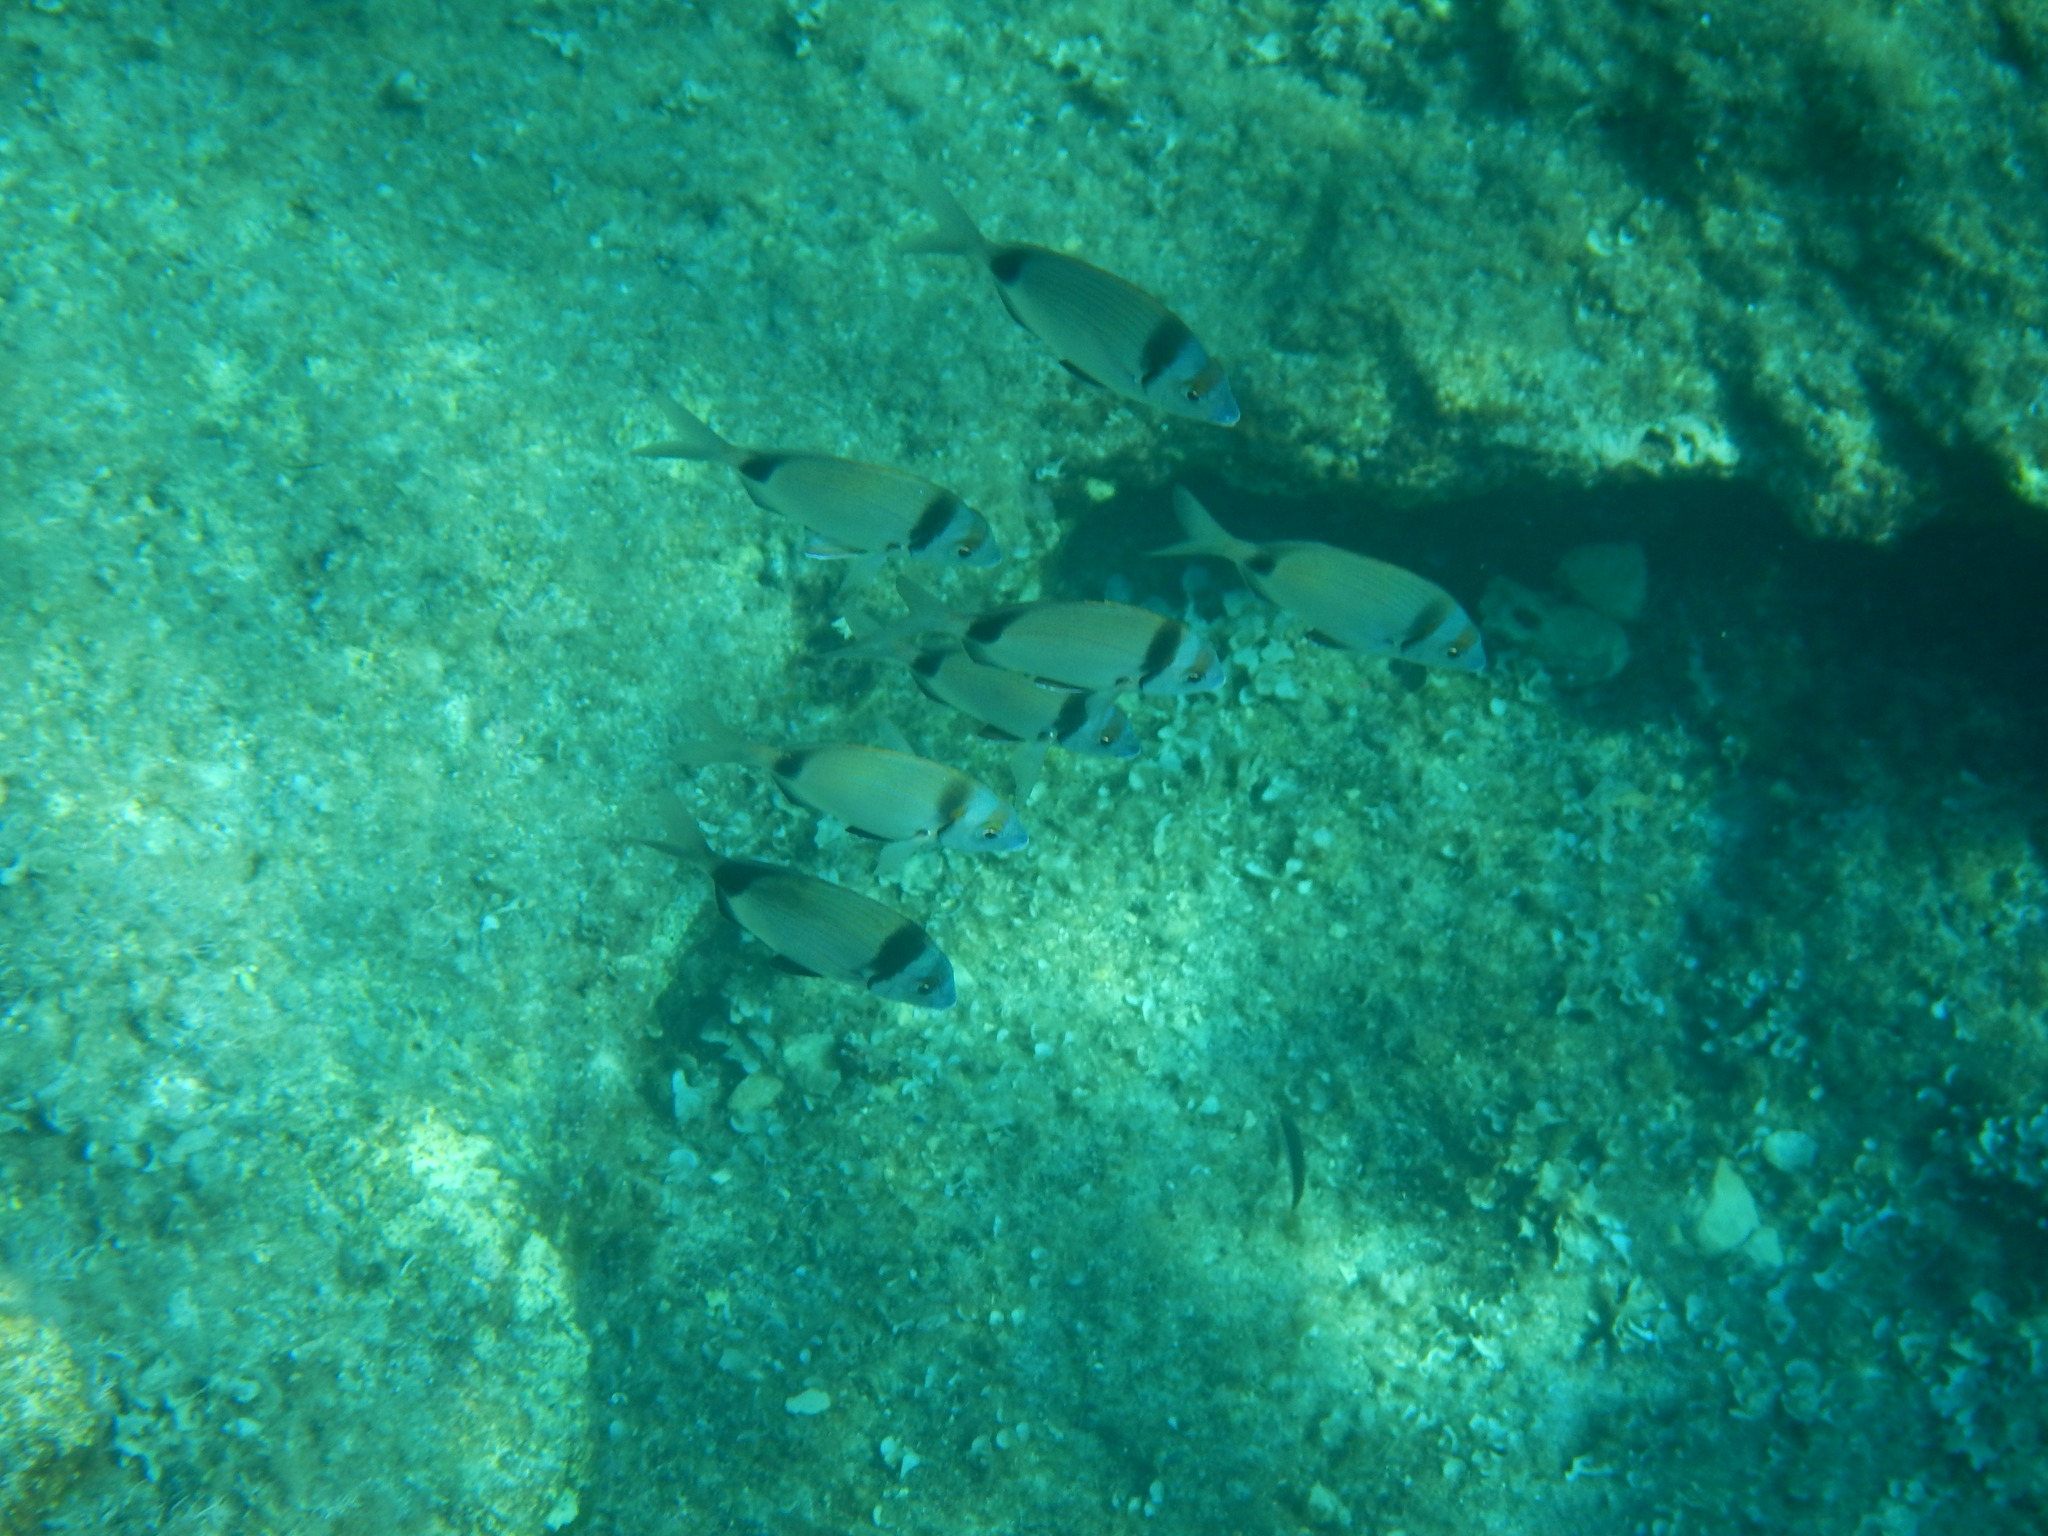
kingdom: Animalia
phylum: Chordata
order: Perciformes
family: Sparidae
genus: Diplodus
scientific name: Diplodus vulgaris
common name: Common two-banded seabream
